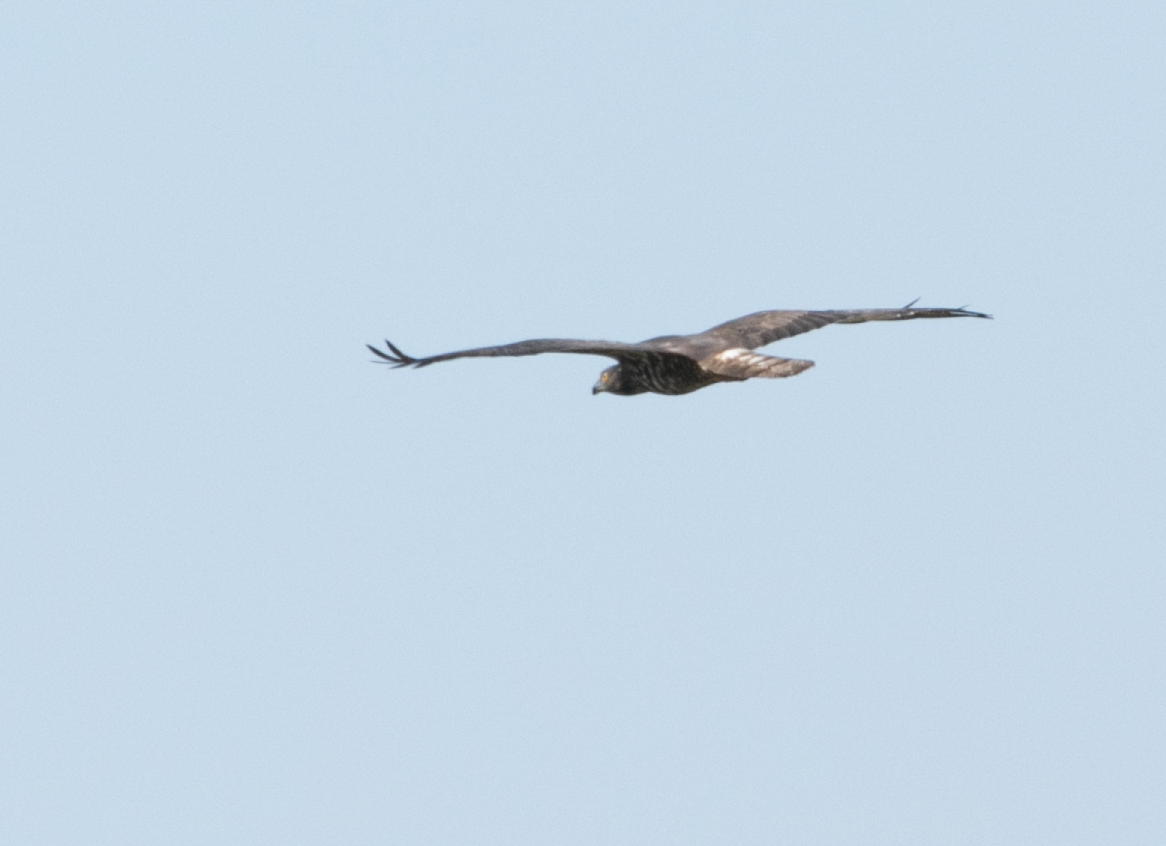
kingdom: Animalia
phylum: Chordata
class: Aves
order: Accipitriformes
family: Accipitridae
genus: Pernis
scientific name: Pernis apivorus
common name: European honey buzzard
